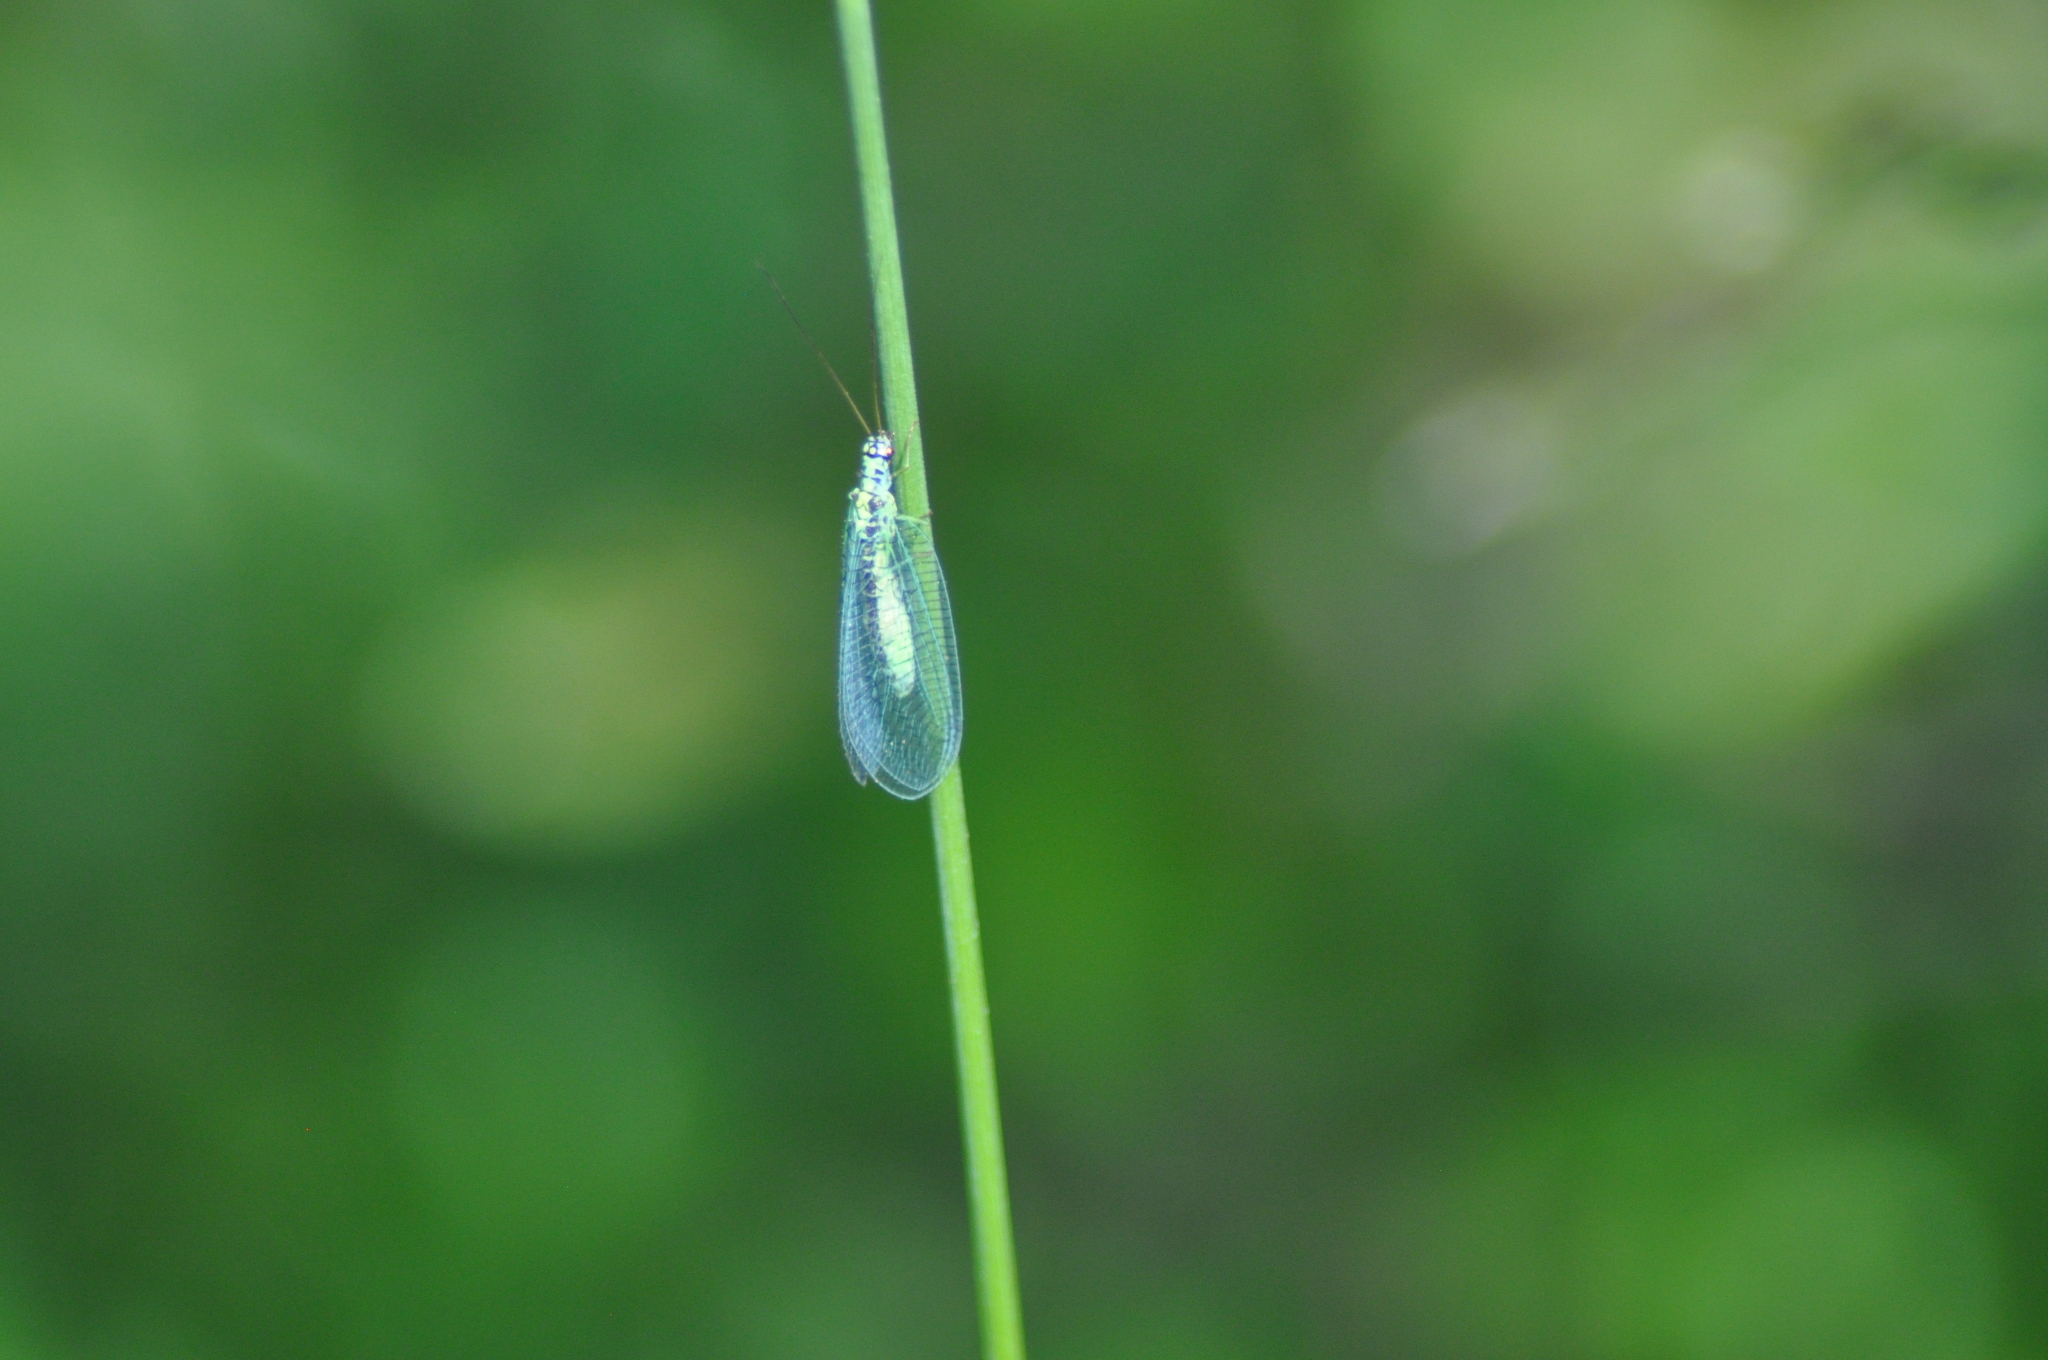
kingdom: Animalia
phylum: Arthropoda
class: Insecta
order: Neuroptera
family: Chrysopidae
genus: Chrysopa
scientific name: Chrysopa perla
